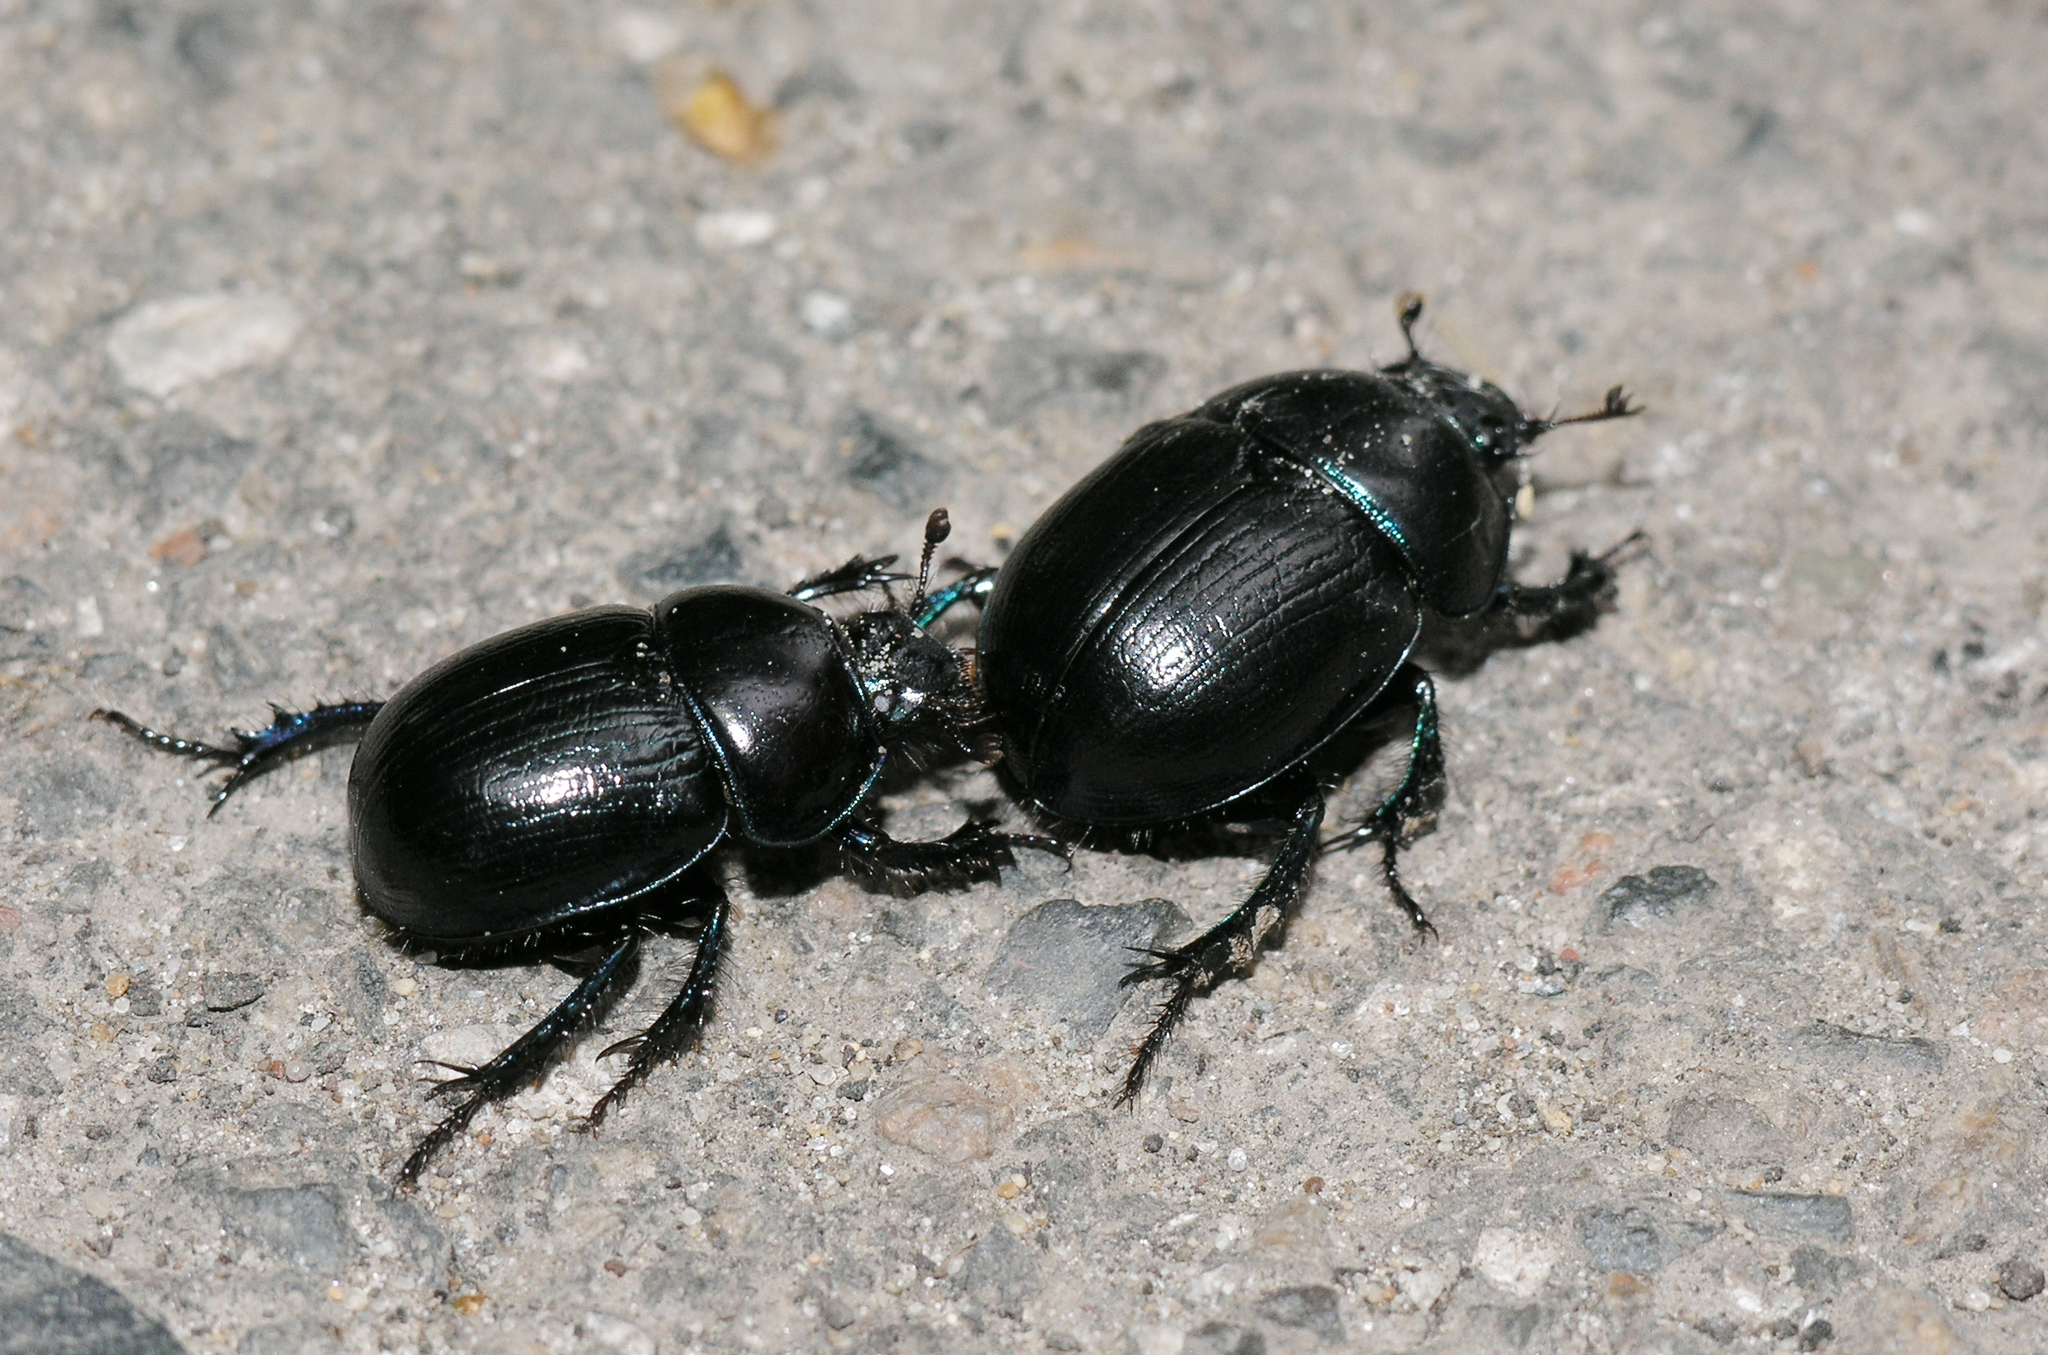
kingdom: Animalia
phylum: Arthropoda
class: Insecta
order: Coleoptera
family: Geotrupidae
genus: Anoplotrupes
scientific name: Anoplotrupes stercorosus
